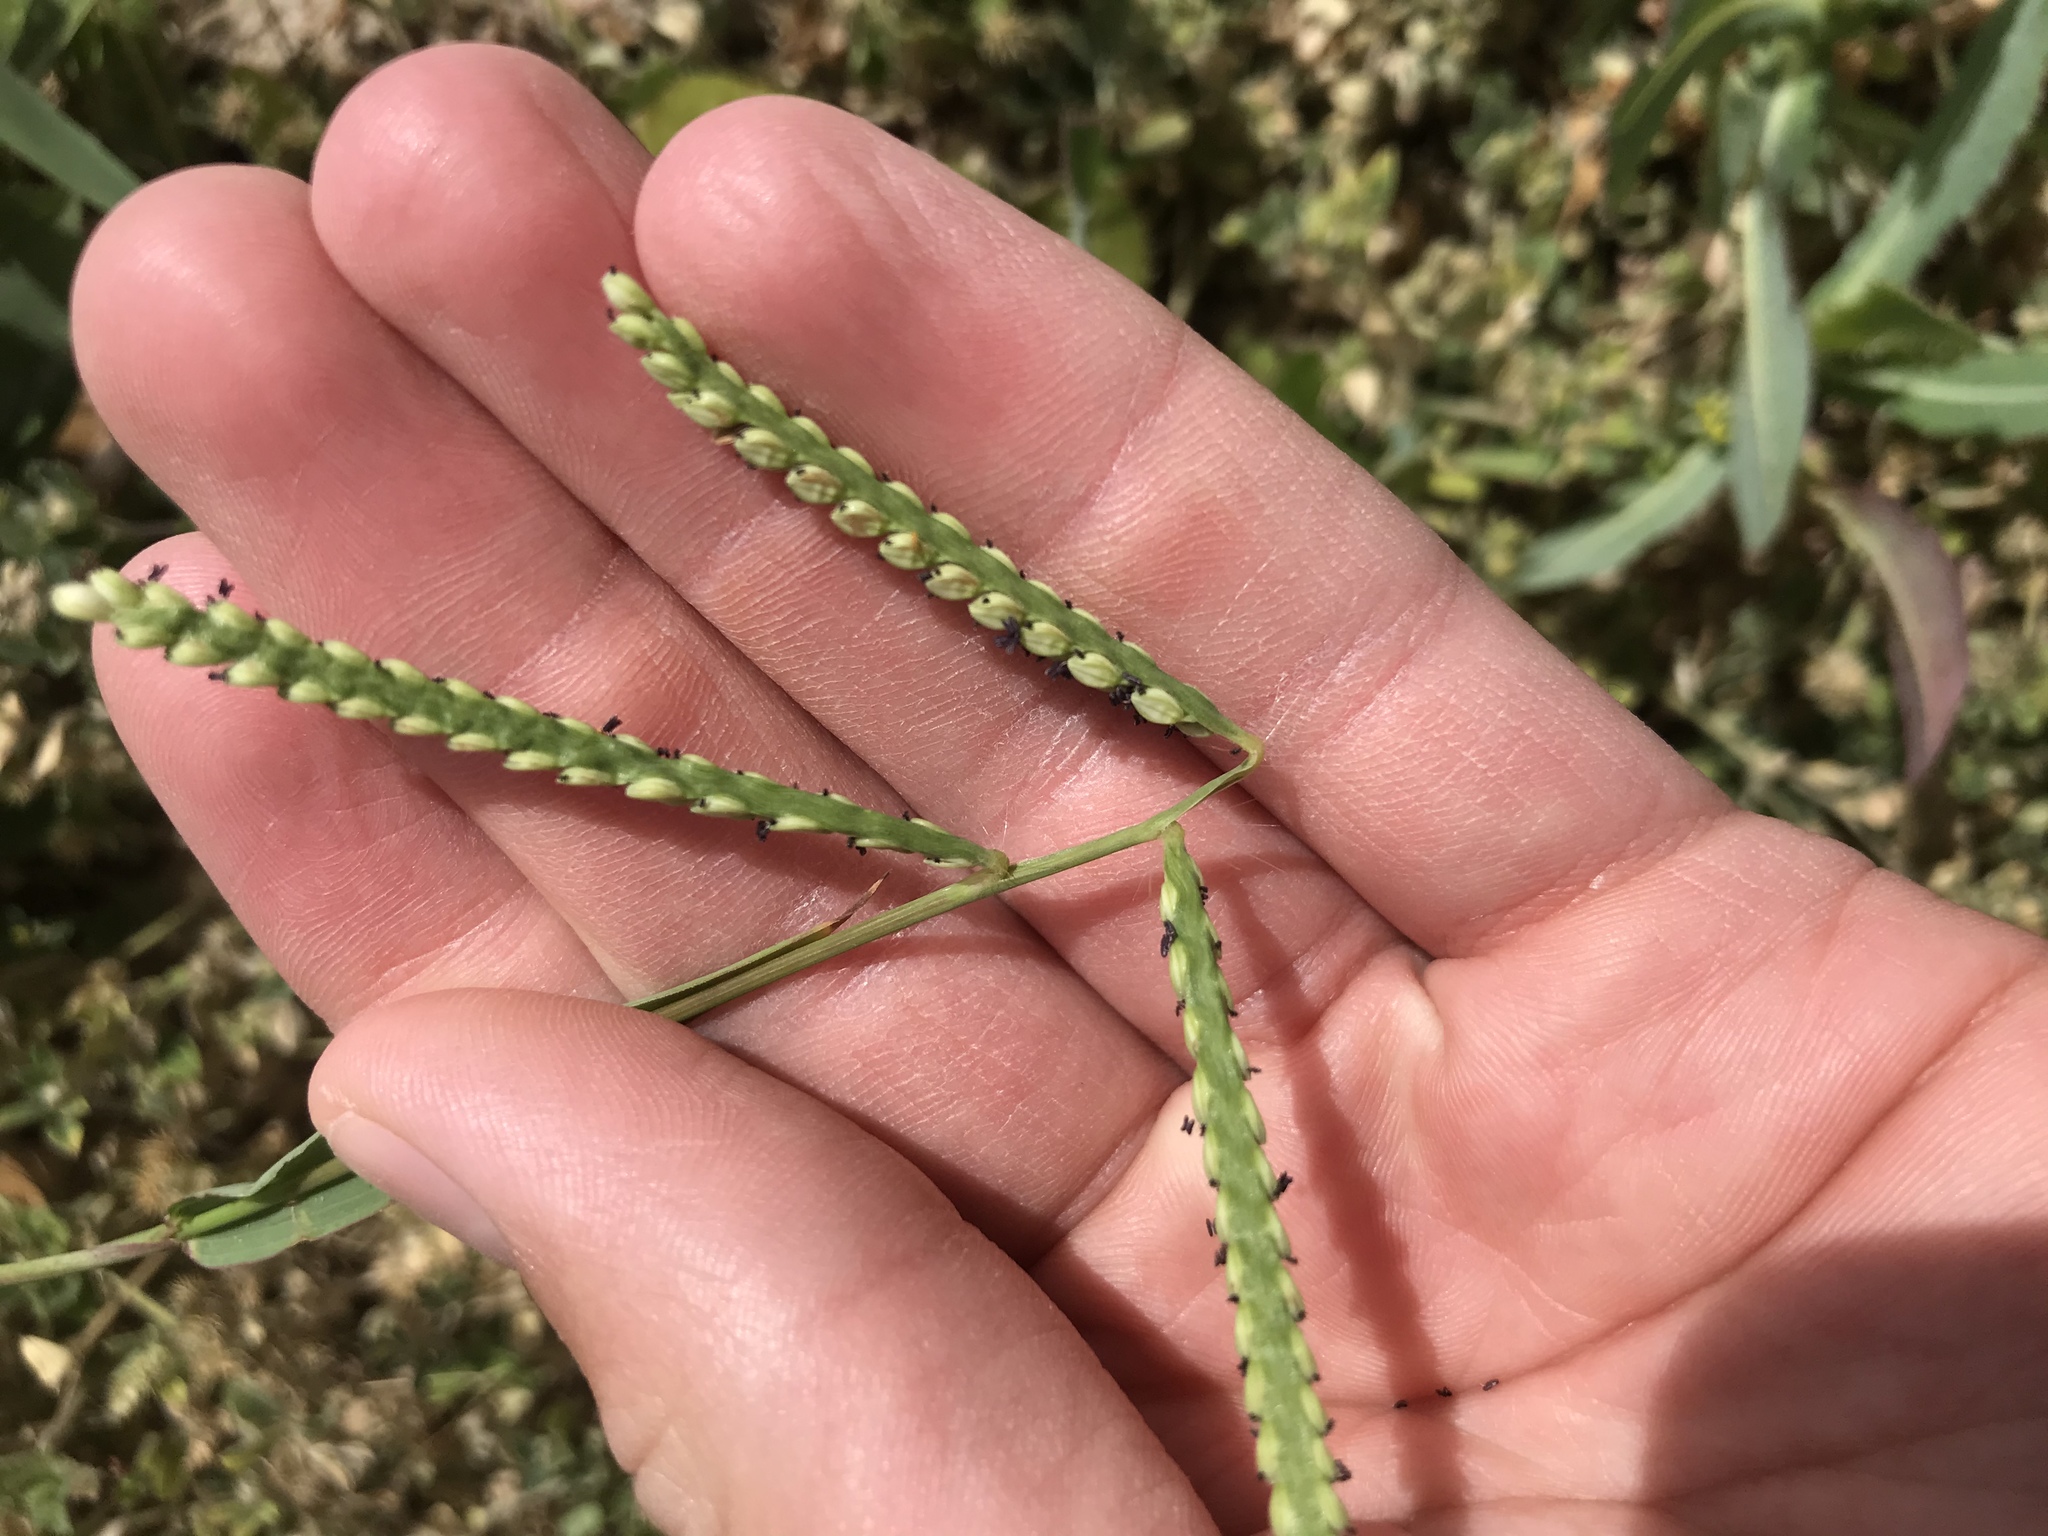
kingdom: Plantae
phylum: Tracheophyta
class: Liliopsida
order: Poales
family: Poaceae
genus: Paspalum
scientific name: Paspalum pubiflorum
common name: Hairy-seed paspalum
